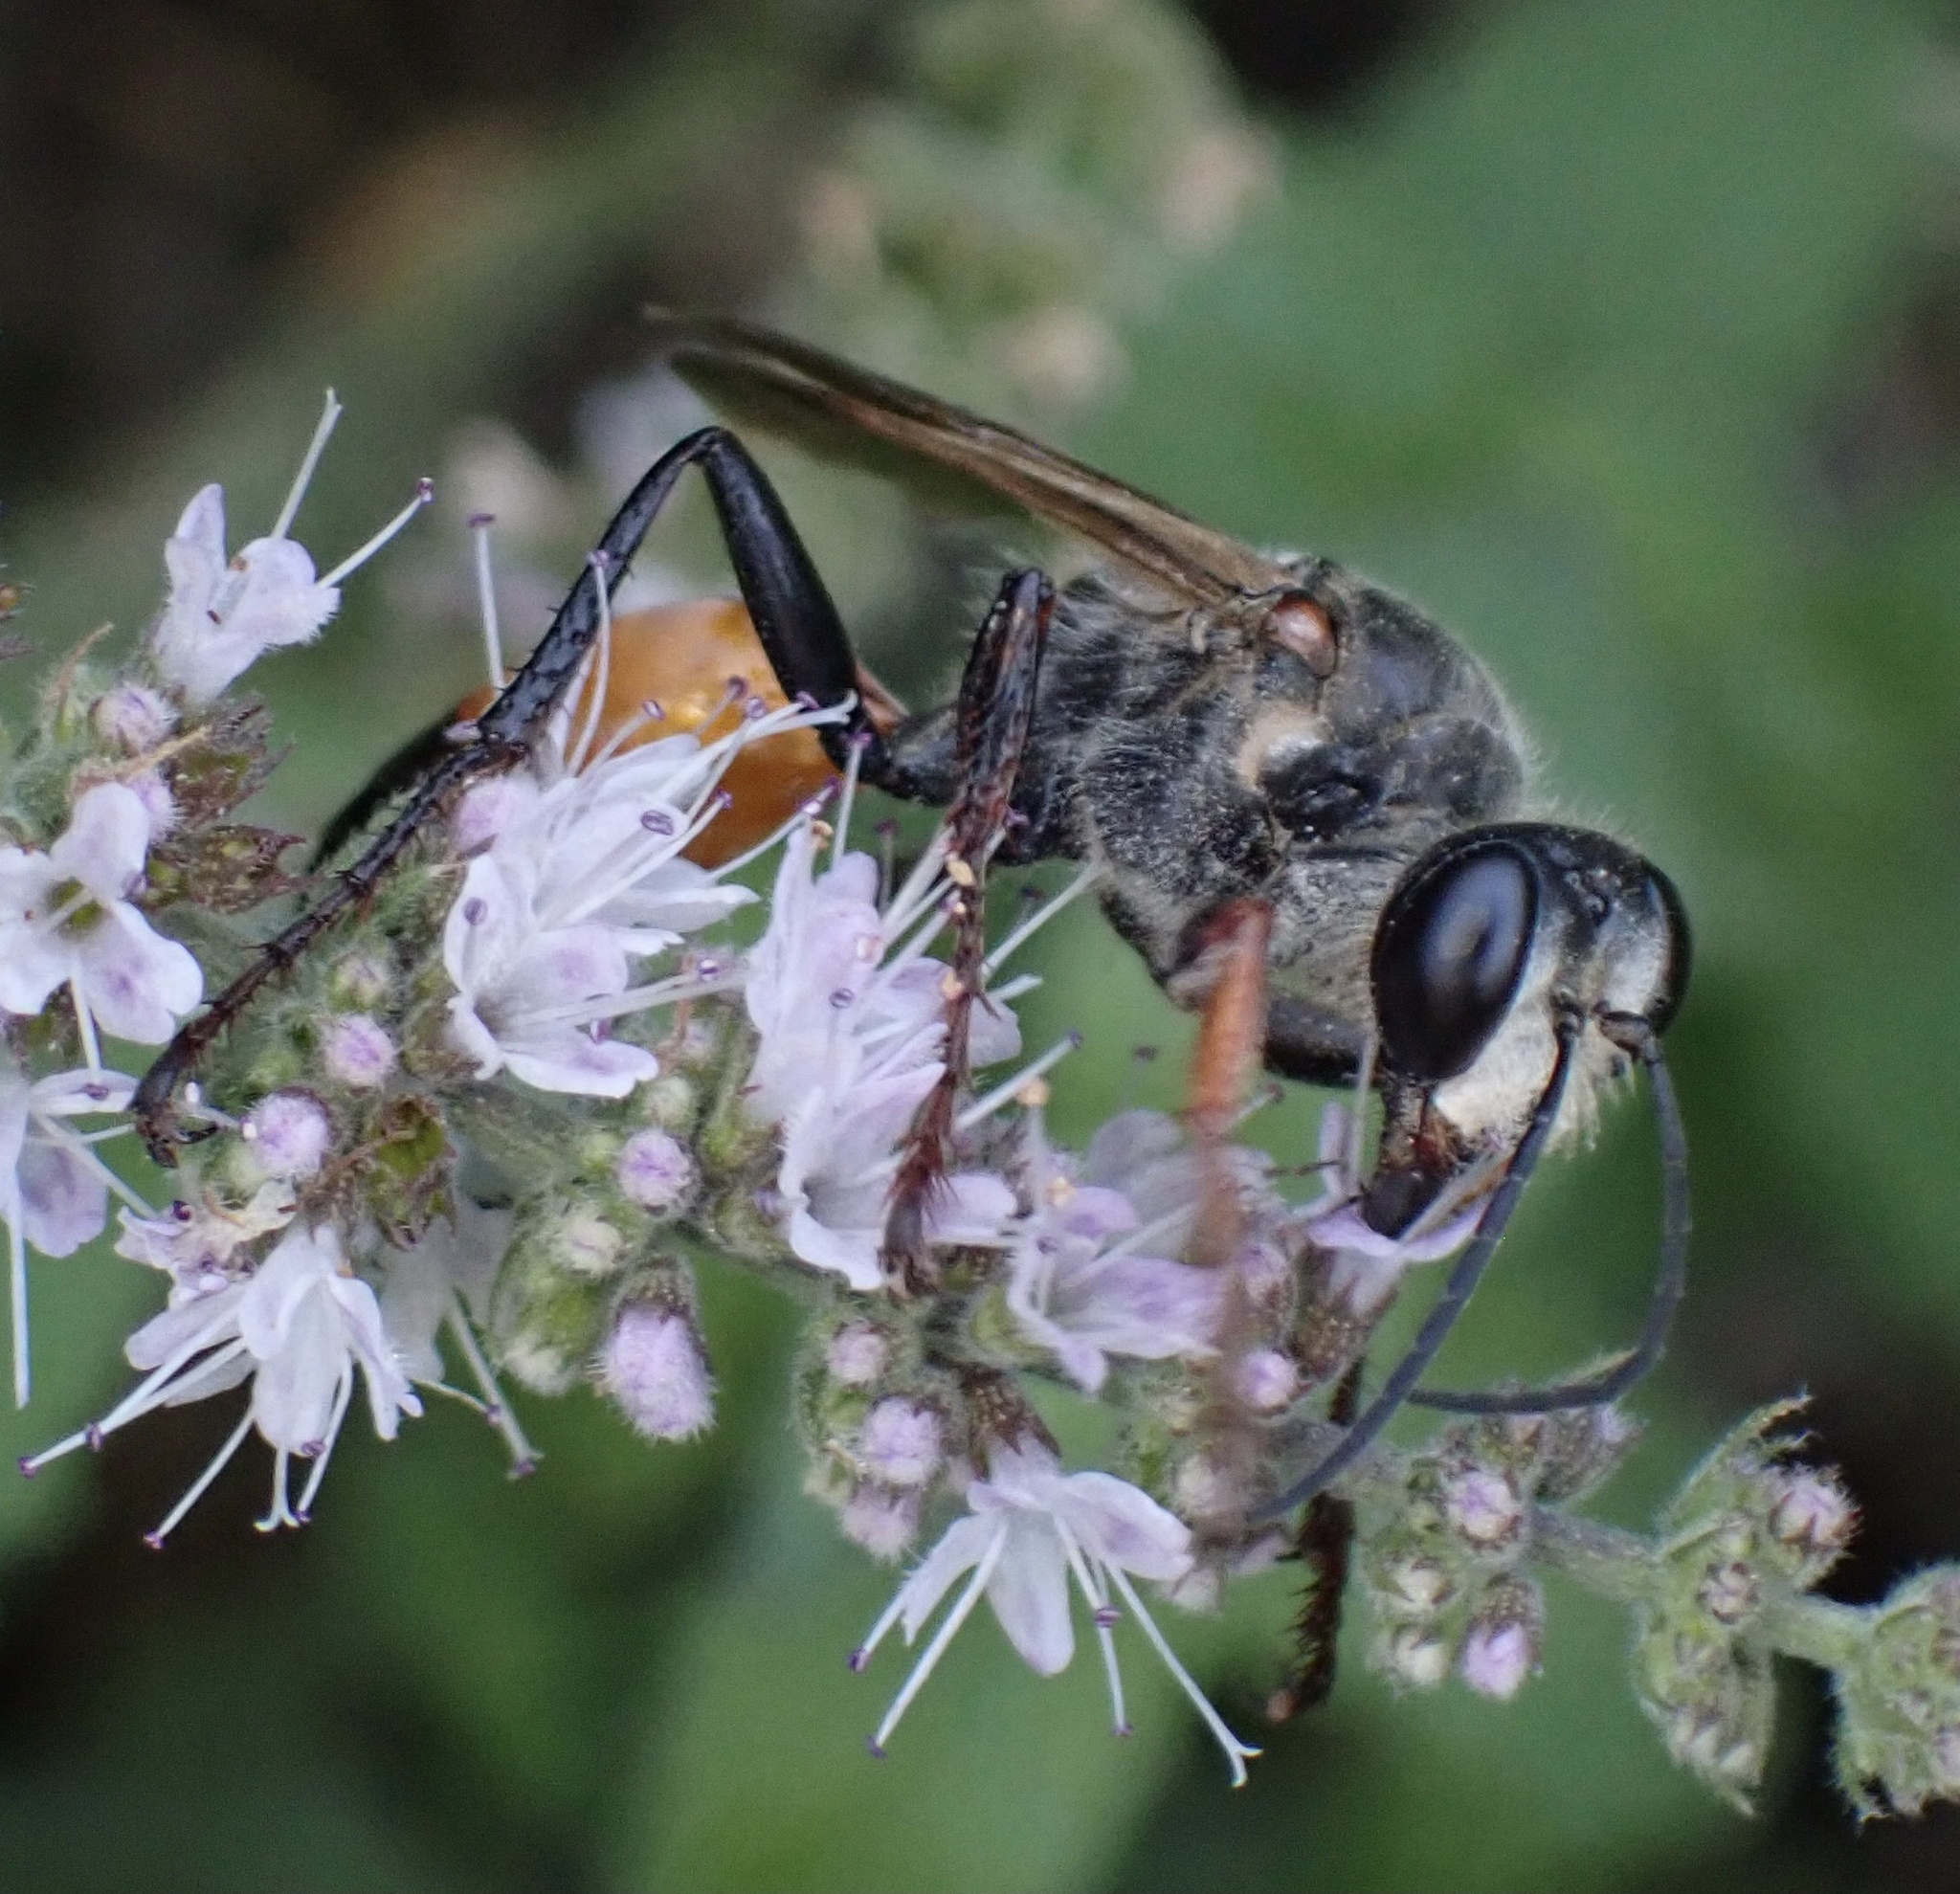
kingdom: Animalia
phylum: Arthropoda
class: Insecta
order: Hymenoptera
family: Sphecidae
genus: Sphex
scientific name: Sphex funerarius
